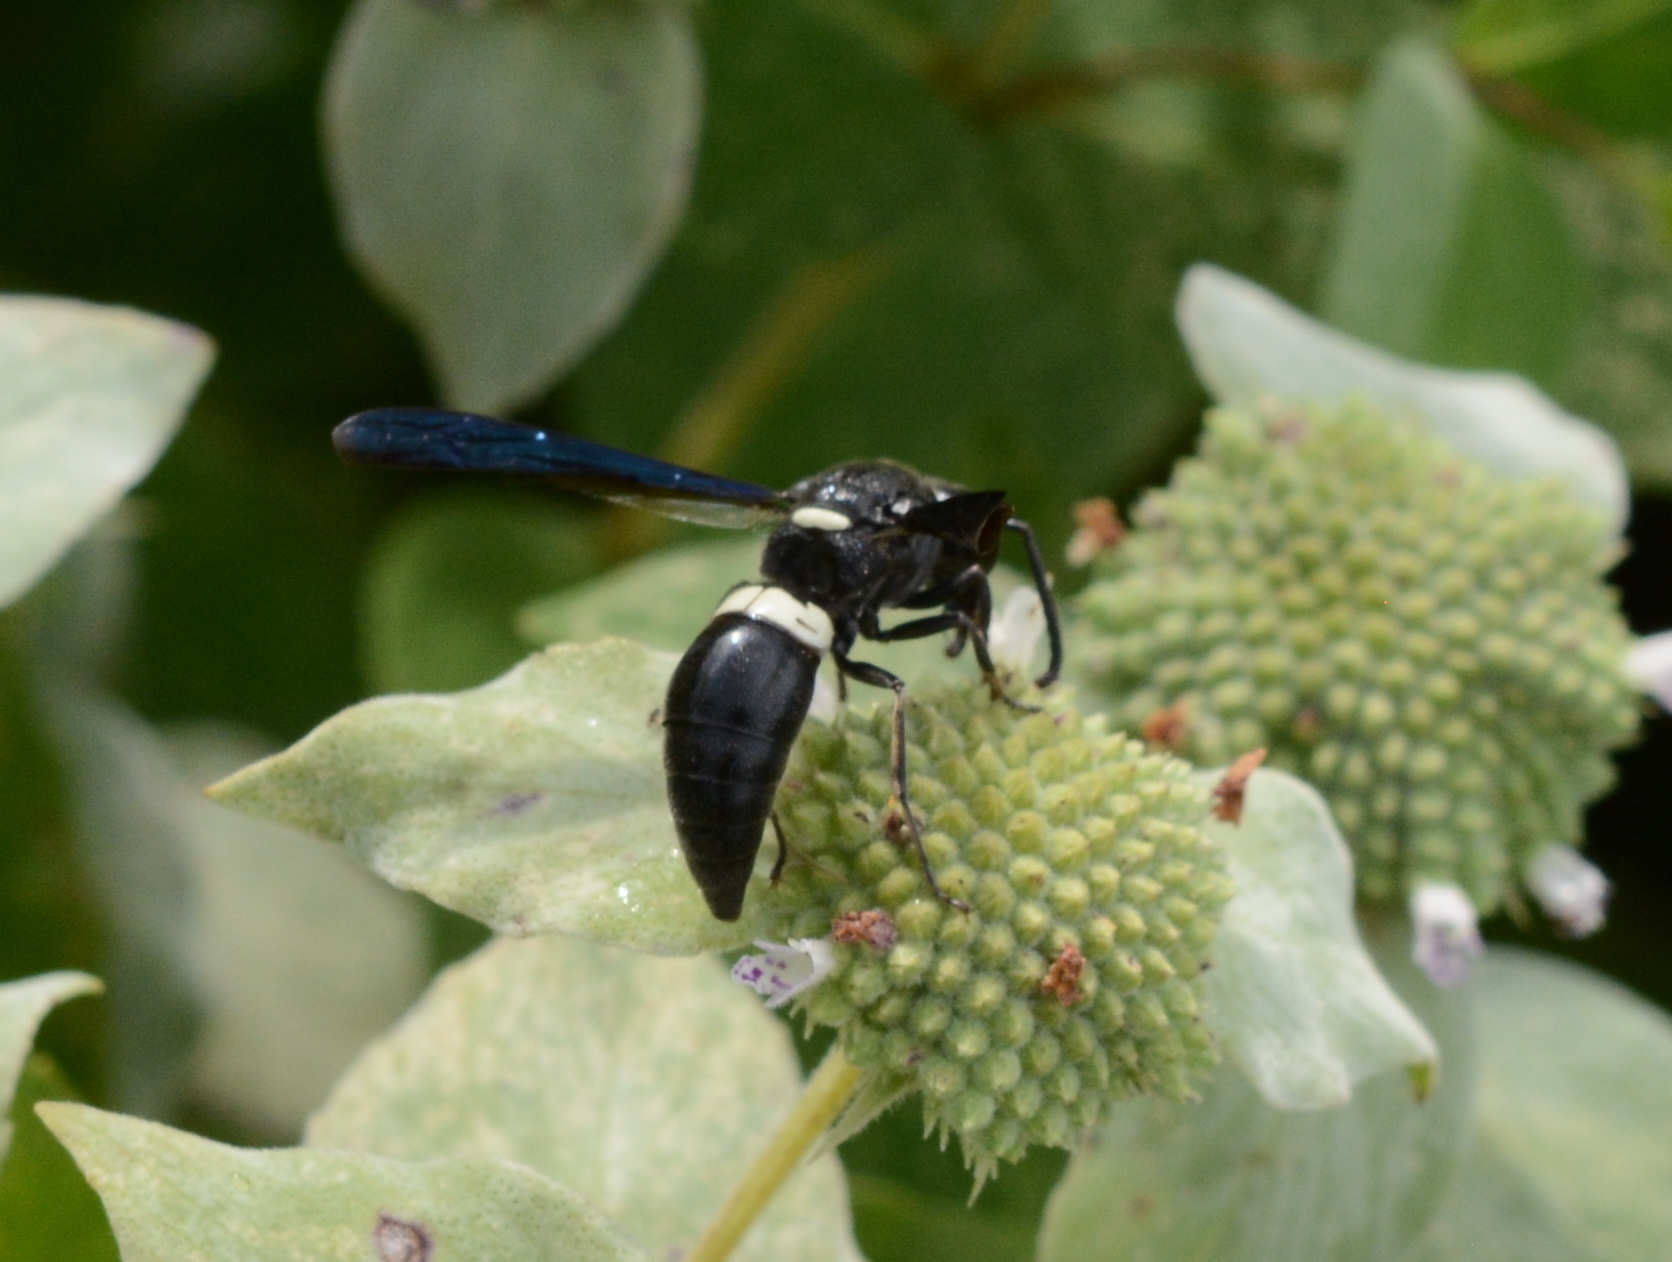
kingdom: Animalia
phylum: Arthropoda
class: Insecta
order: Hymenoptera
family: Eumenidae
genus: Monobia
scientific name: Monobia quadridens
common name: Four-toothed mason wasp
